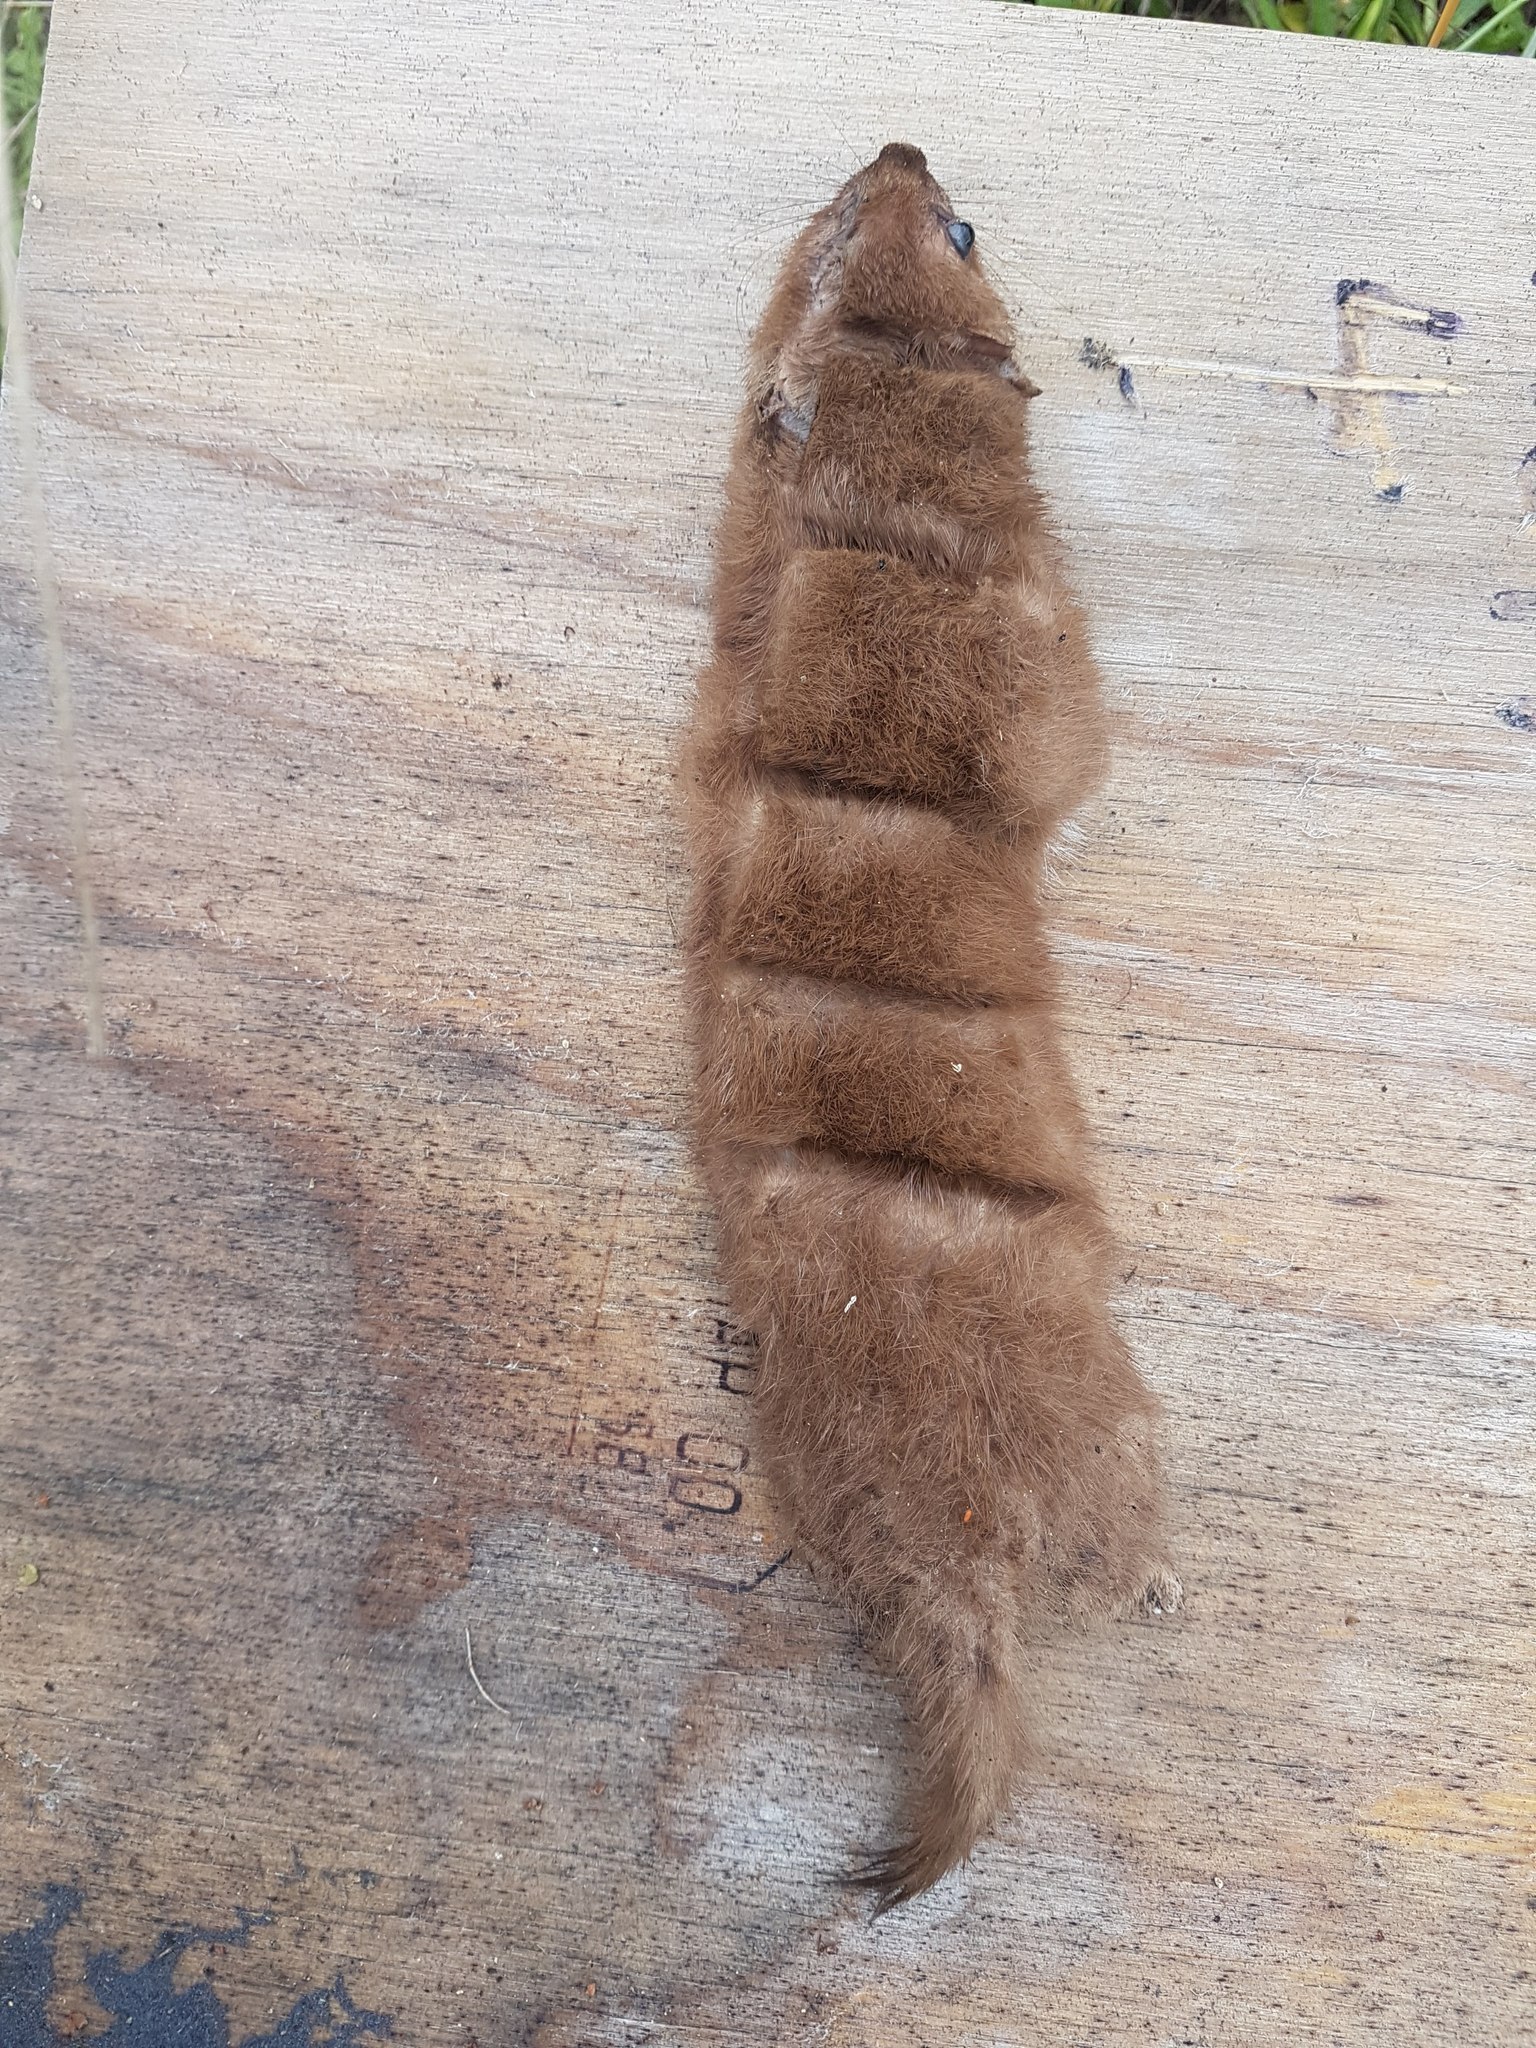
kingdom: Animalia
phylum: Chordata
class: Mammalia
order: Carnivora
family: Mustelidae
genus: Mustela
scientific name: Mustela nivalis
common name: Least weasel
